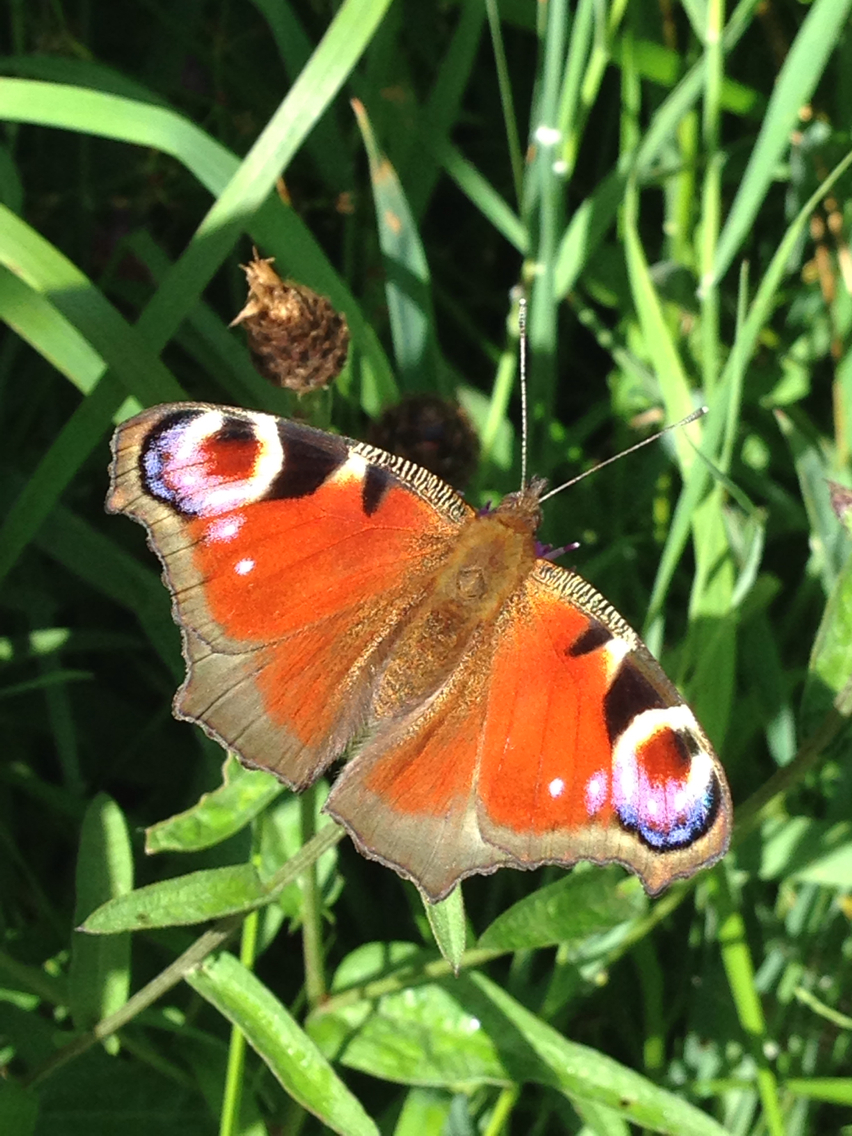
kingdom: Animalia
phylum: Arthropoda
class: Insecta
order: Lepidoptera
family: Nymphalidae
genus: Aglais
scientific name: Aglais io
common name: Peacock
